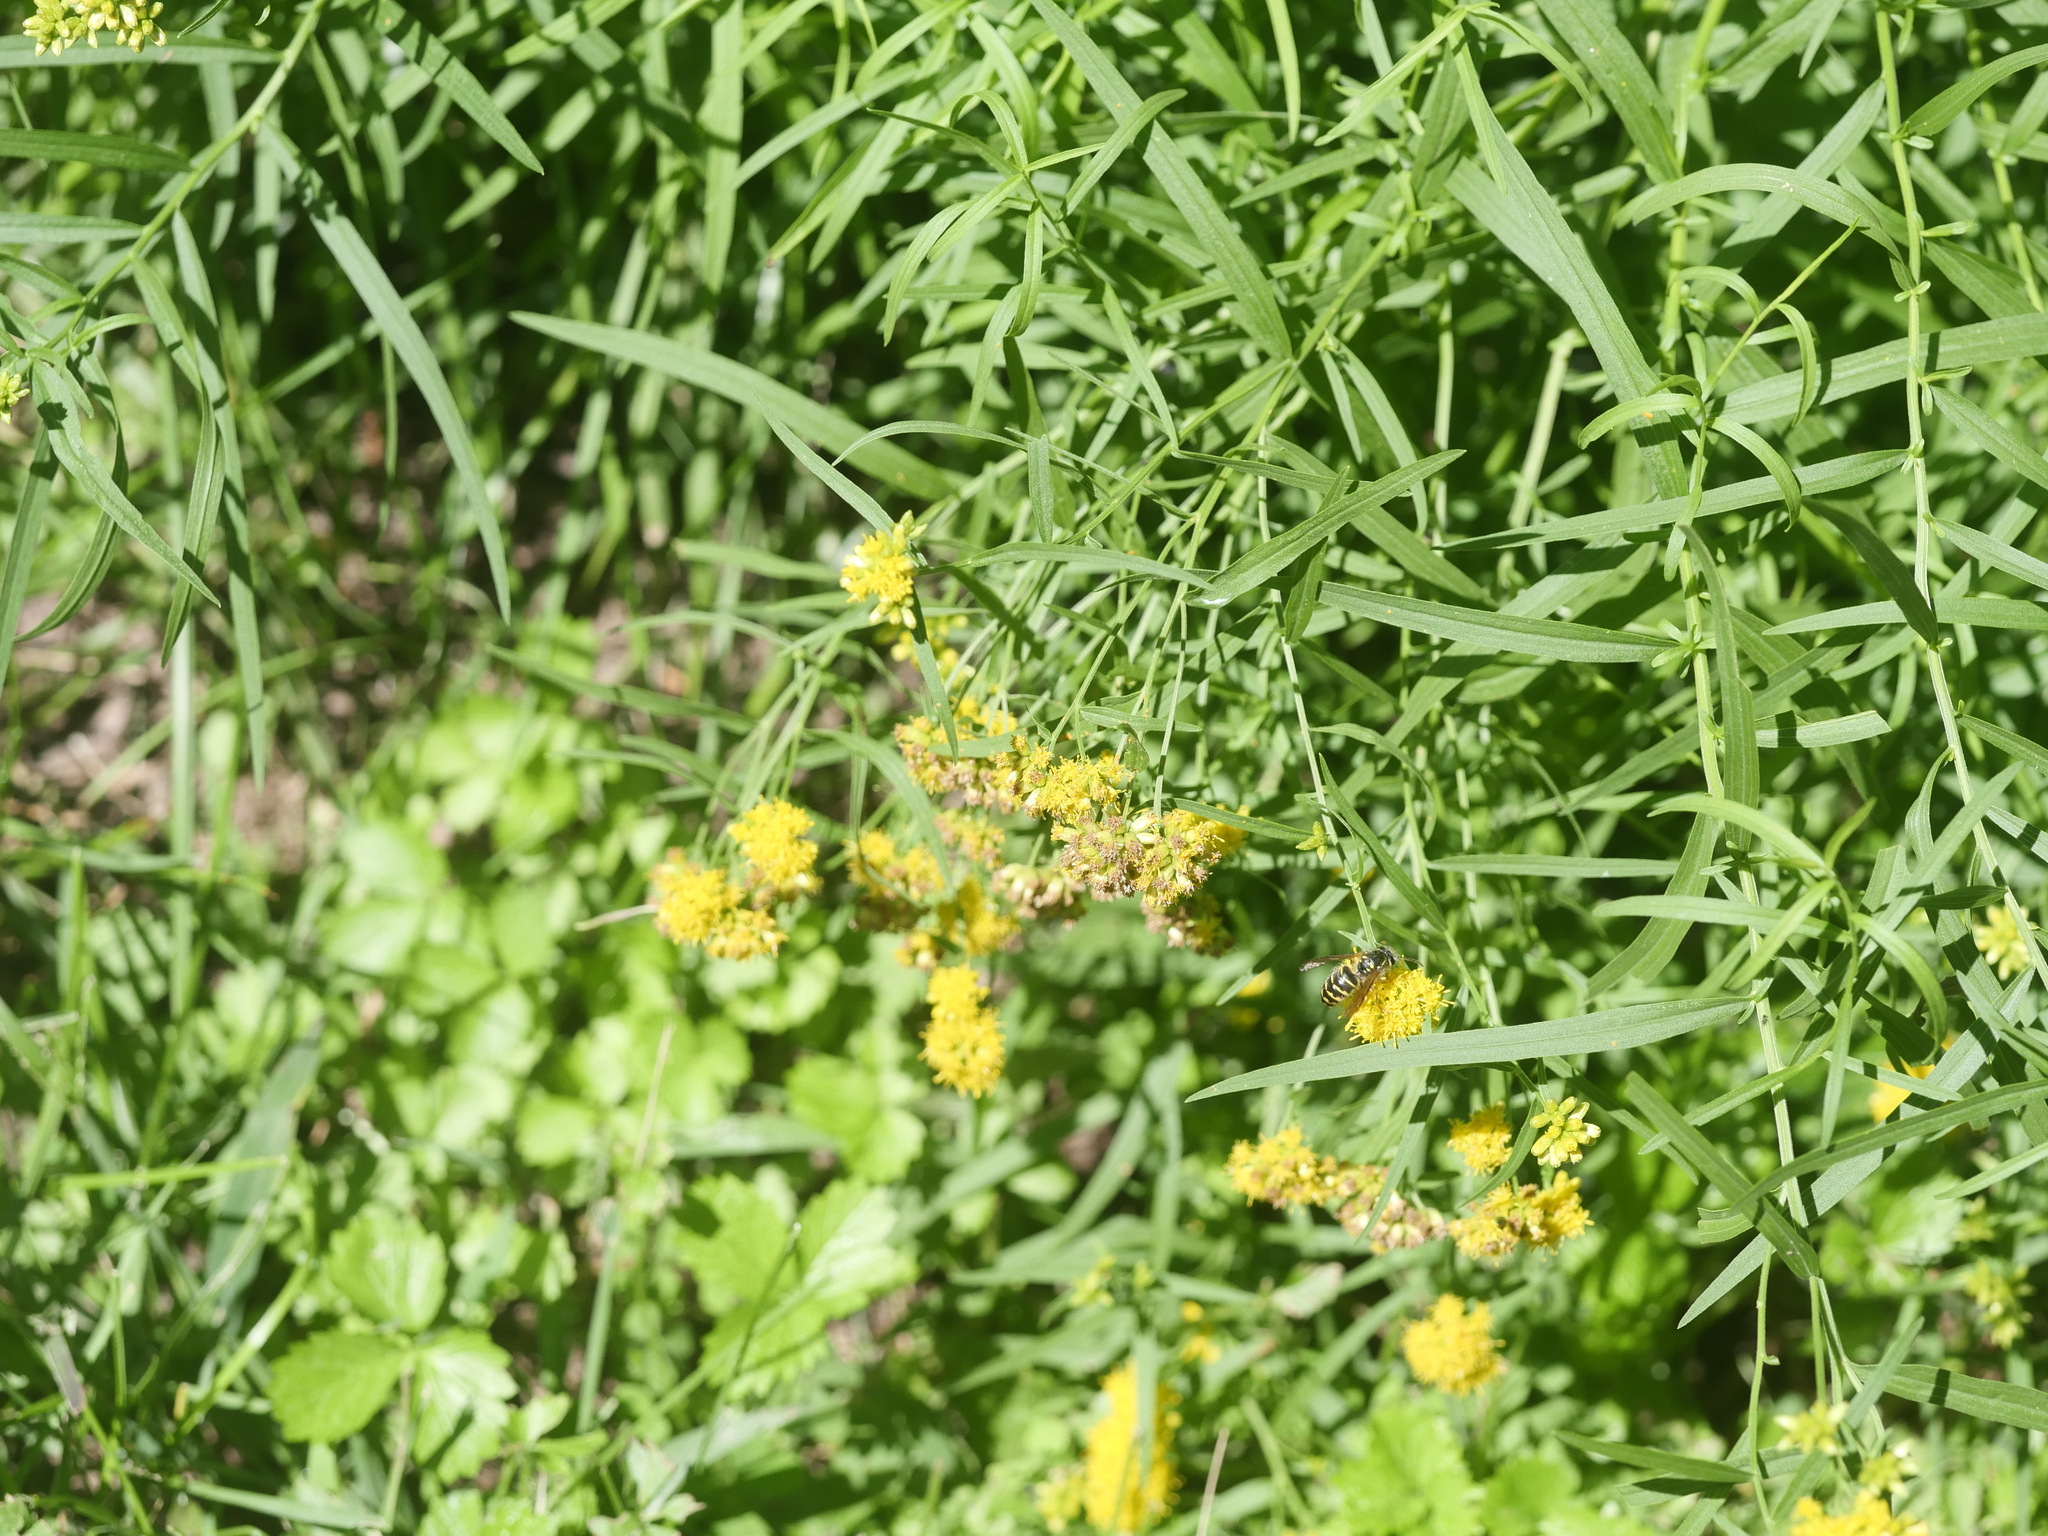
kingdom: Plantae
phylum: Tracheophyta
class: Magnoliopsida
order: Asterales
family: Asteraceae
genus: Euthamia
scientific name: Euthamia graminifolia
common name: Common goldentop
